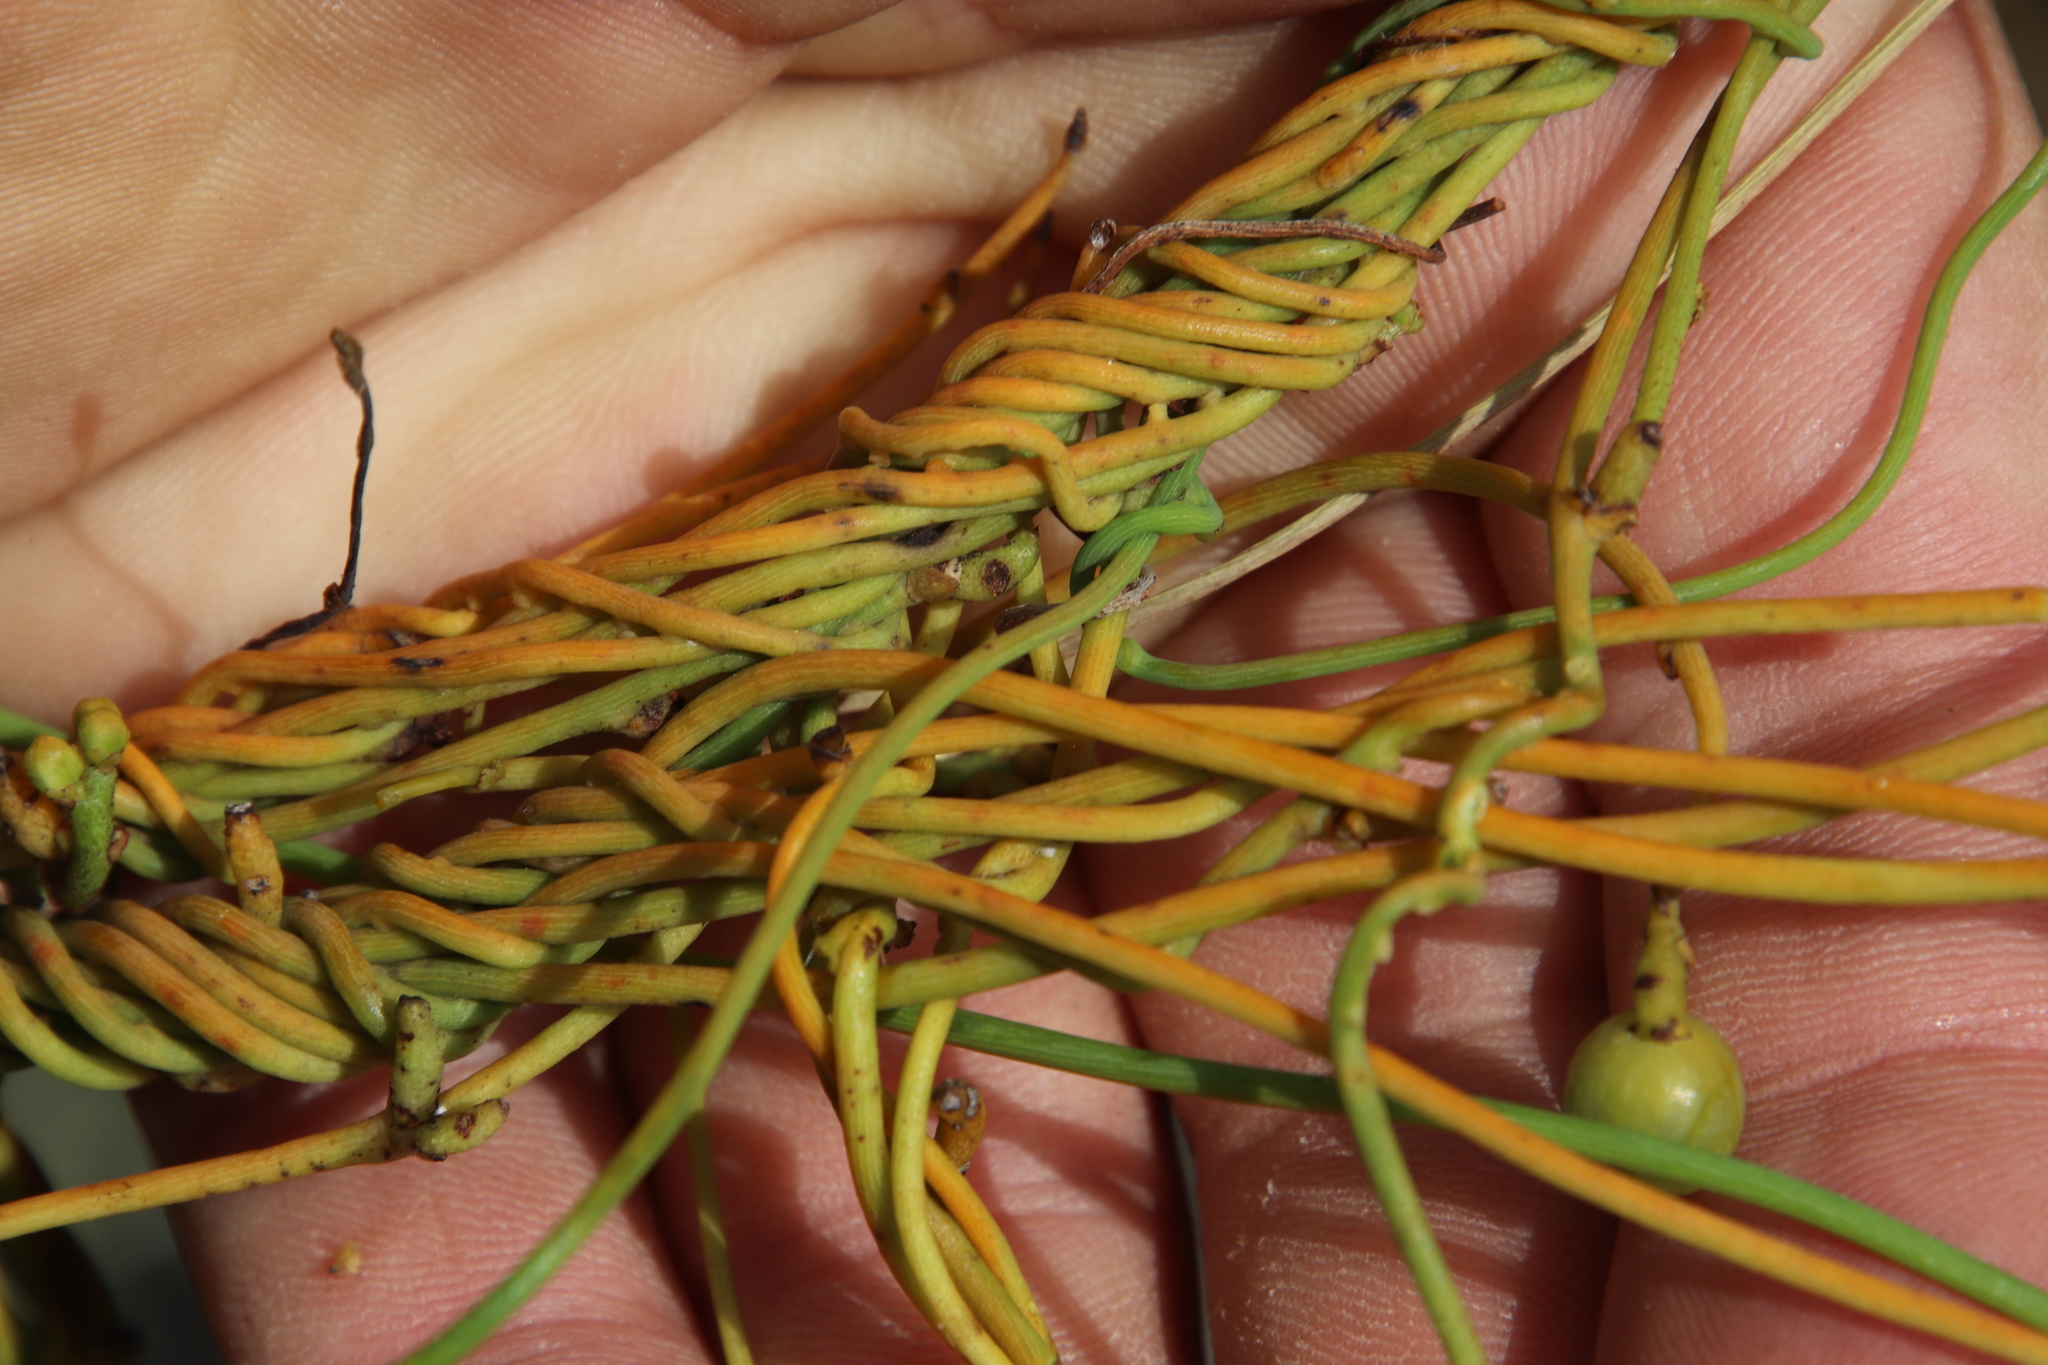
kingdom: Plantae
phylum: Tracheophyta
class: Magnoliopsida
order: Laurales
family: Lauraceae
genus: Cassytha
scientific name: Cassytha ciliolata
